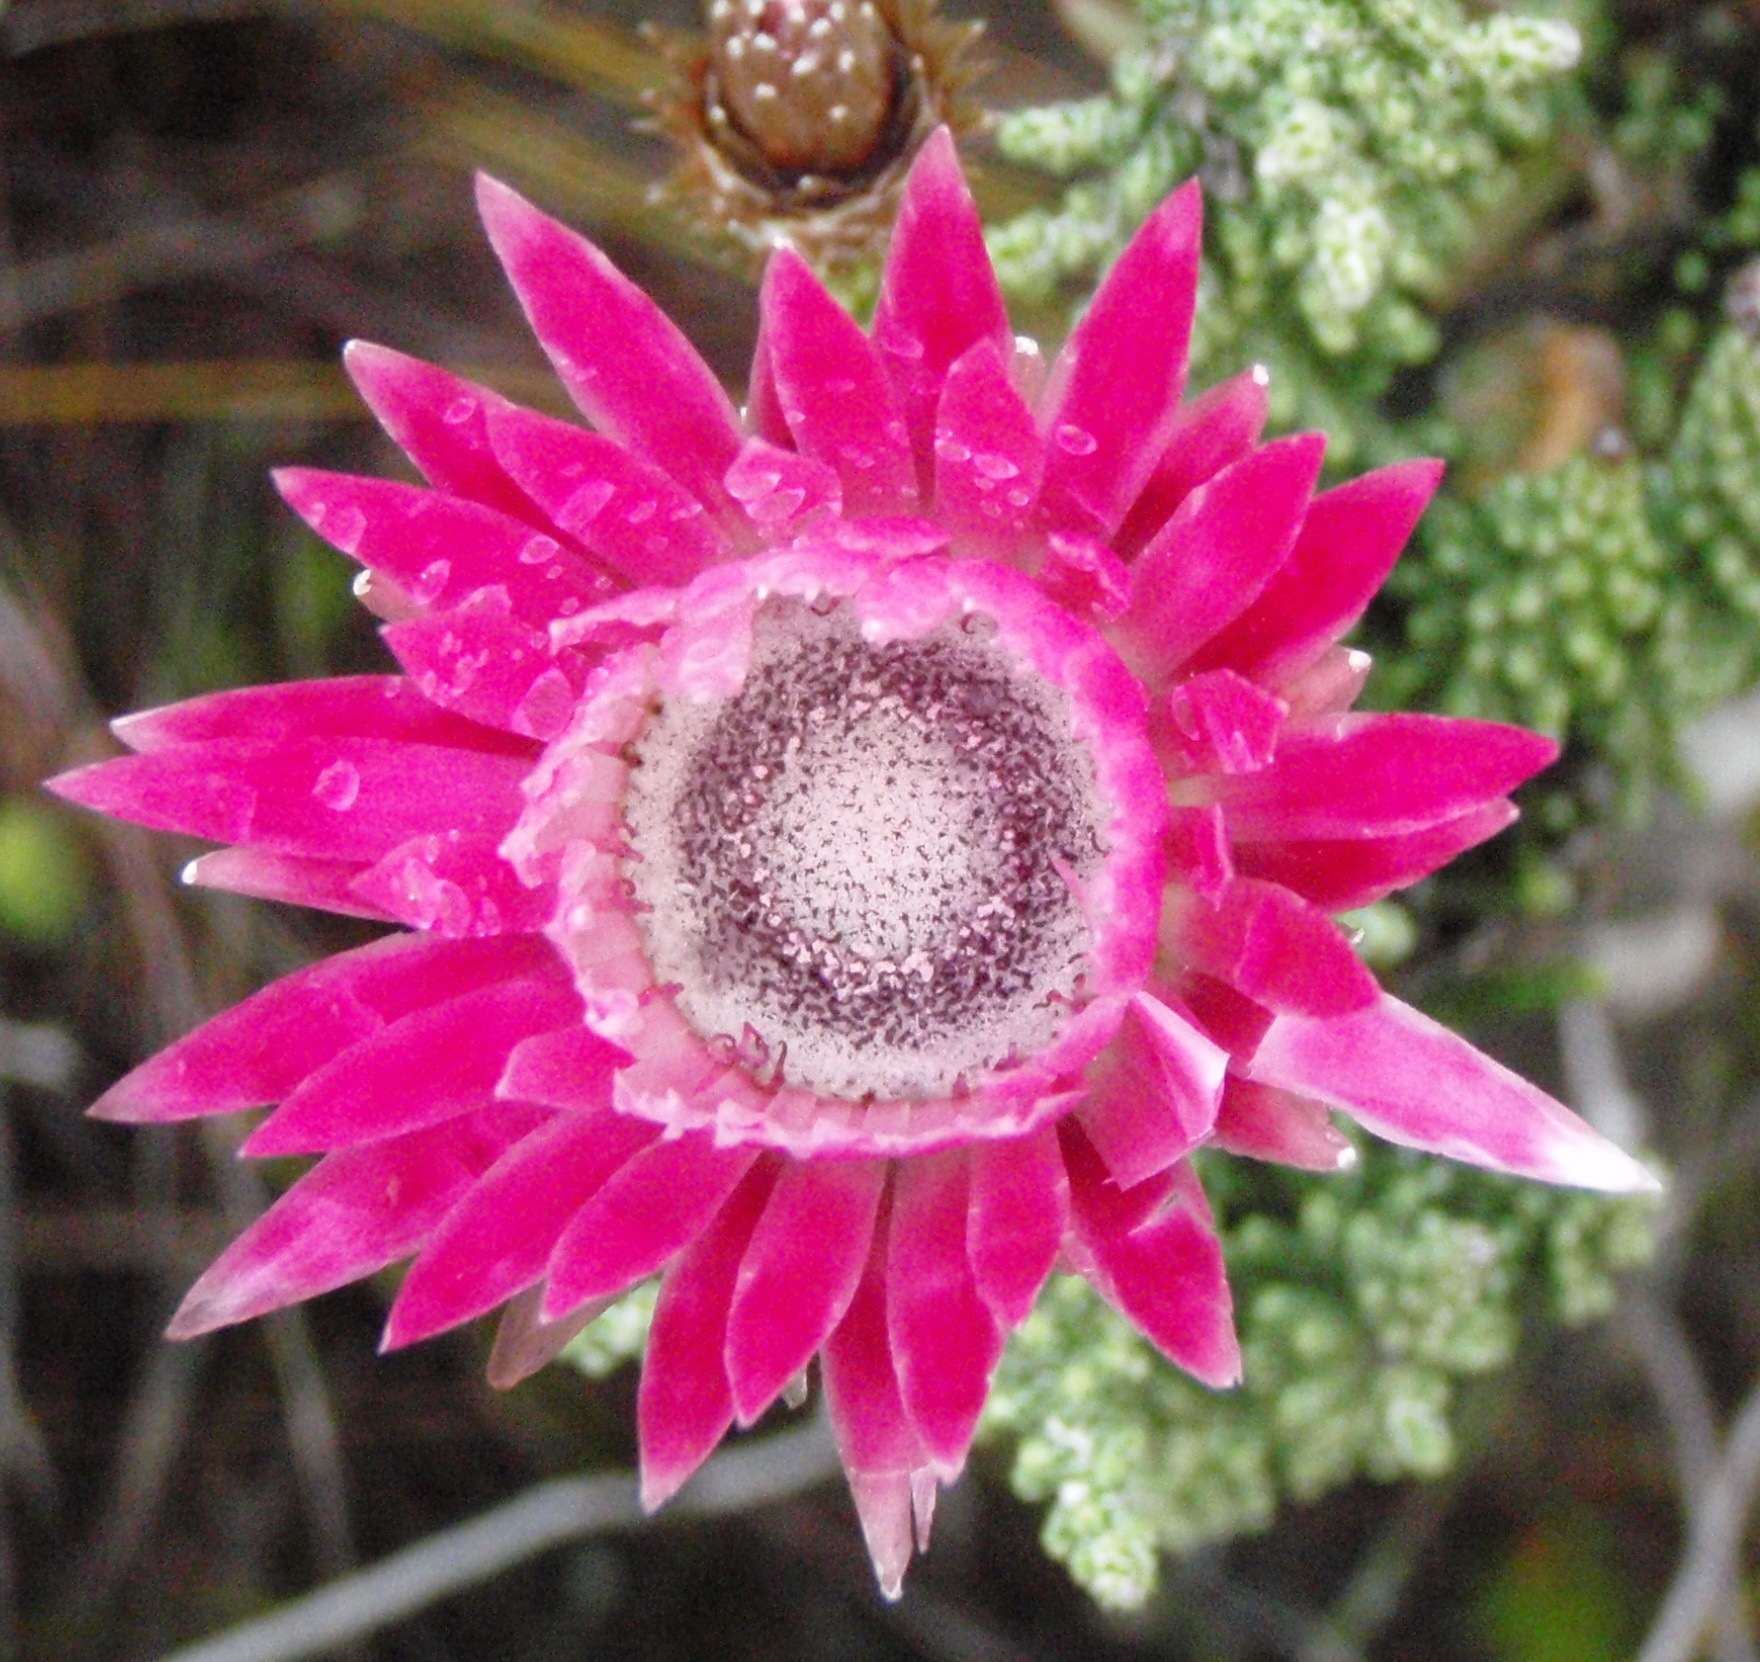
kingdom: Plantae
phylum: Tracheophyta
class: Magnoliopsida
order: Asterales
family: Asteraceae
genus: Phaenocoma
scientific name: Phaenocoma prolifera
